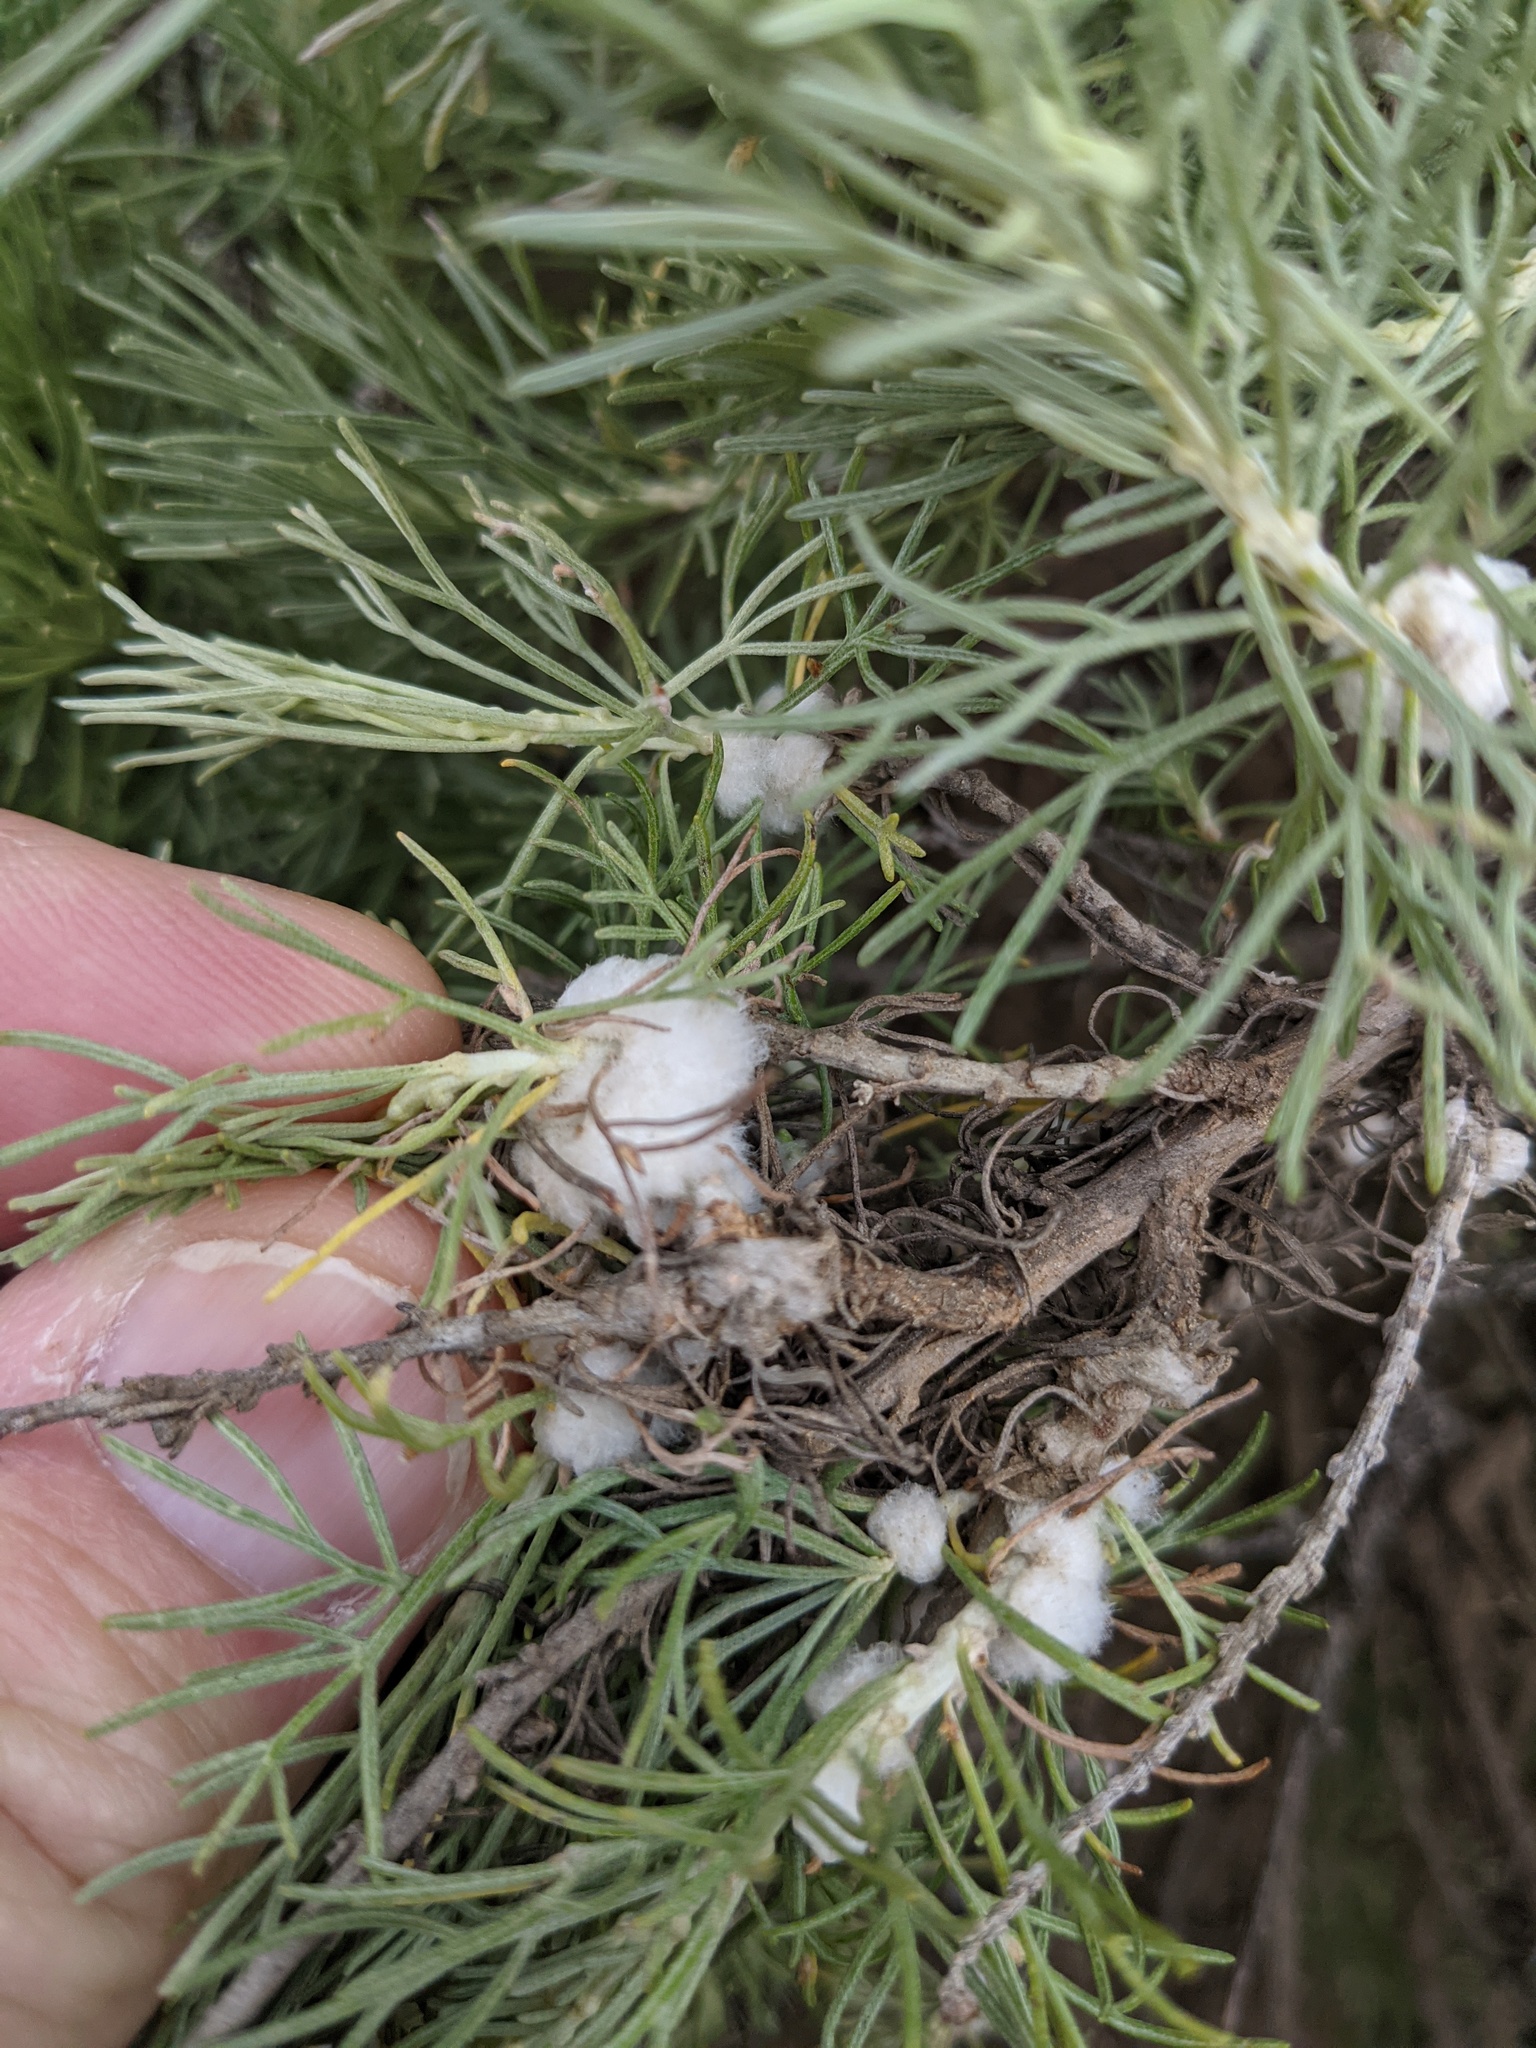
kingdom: Animalia
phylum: Arthropoda
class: Insecta
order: Diptera
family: Cecidomyiidae
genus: Rhopalomyia
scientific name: Rhopalomyia floccosa
